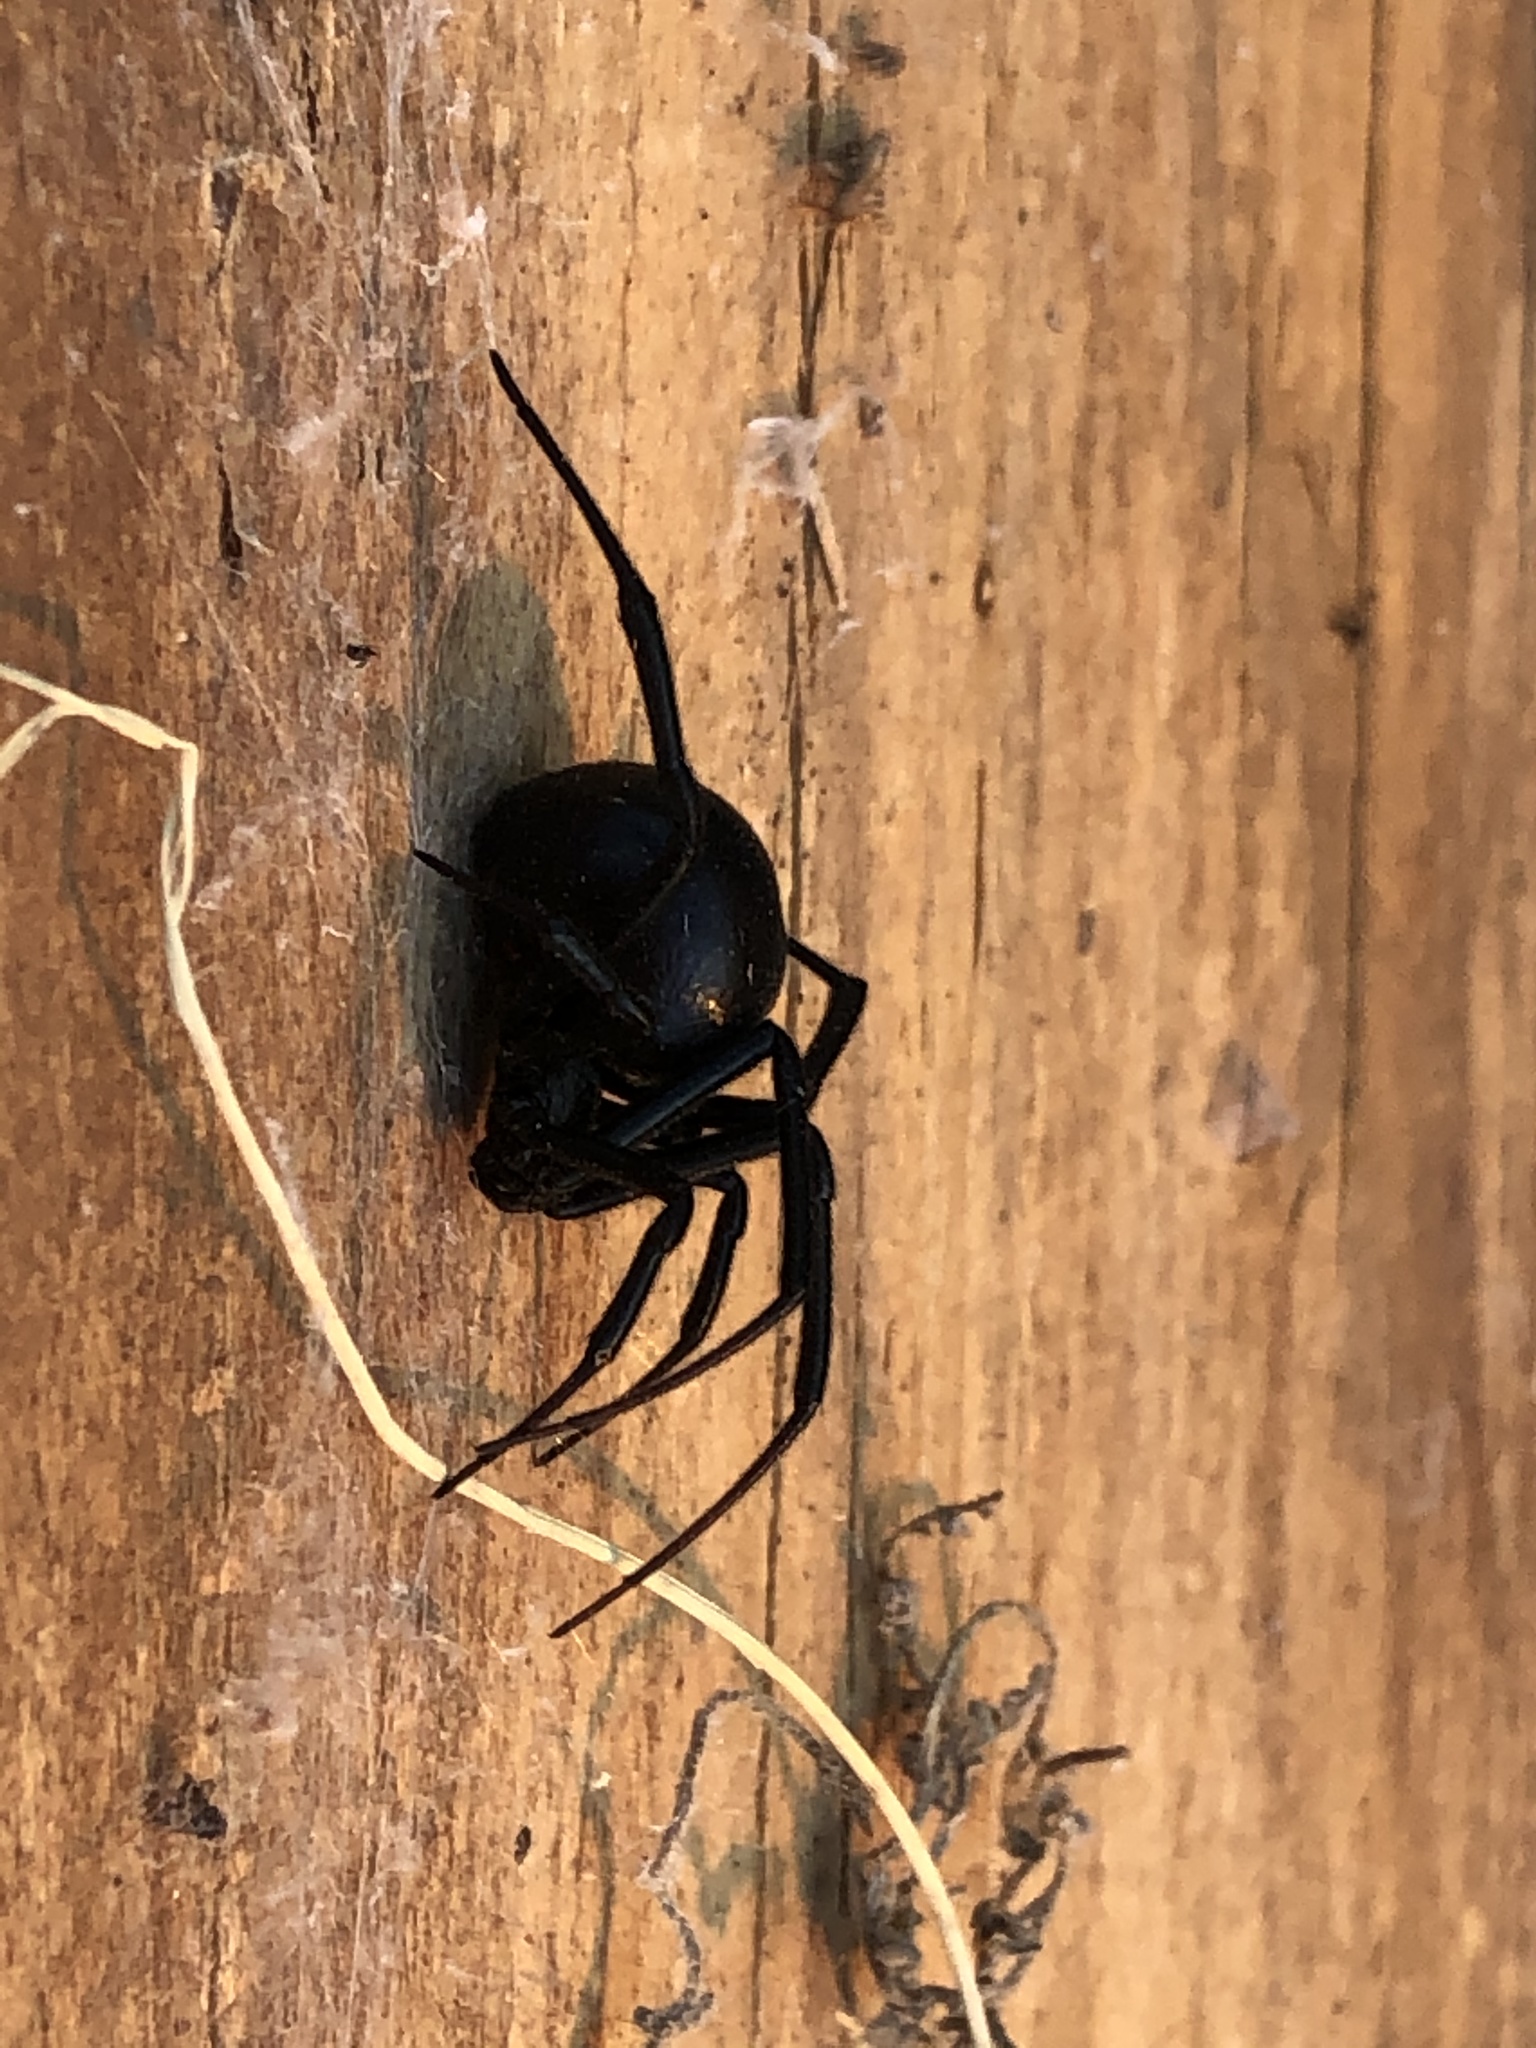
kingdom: Animalia
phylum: Arthropoda
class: Arachnida
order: Araneae
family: Theridiidae
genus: Latrodectus
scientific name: Latrodectus hesperus
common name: Western black widow
